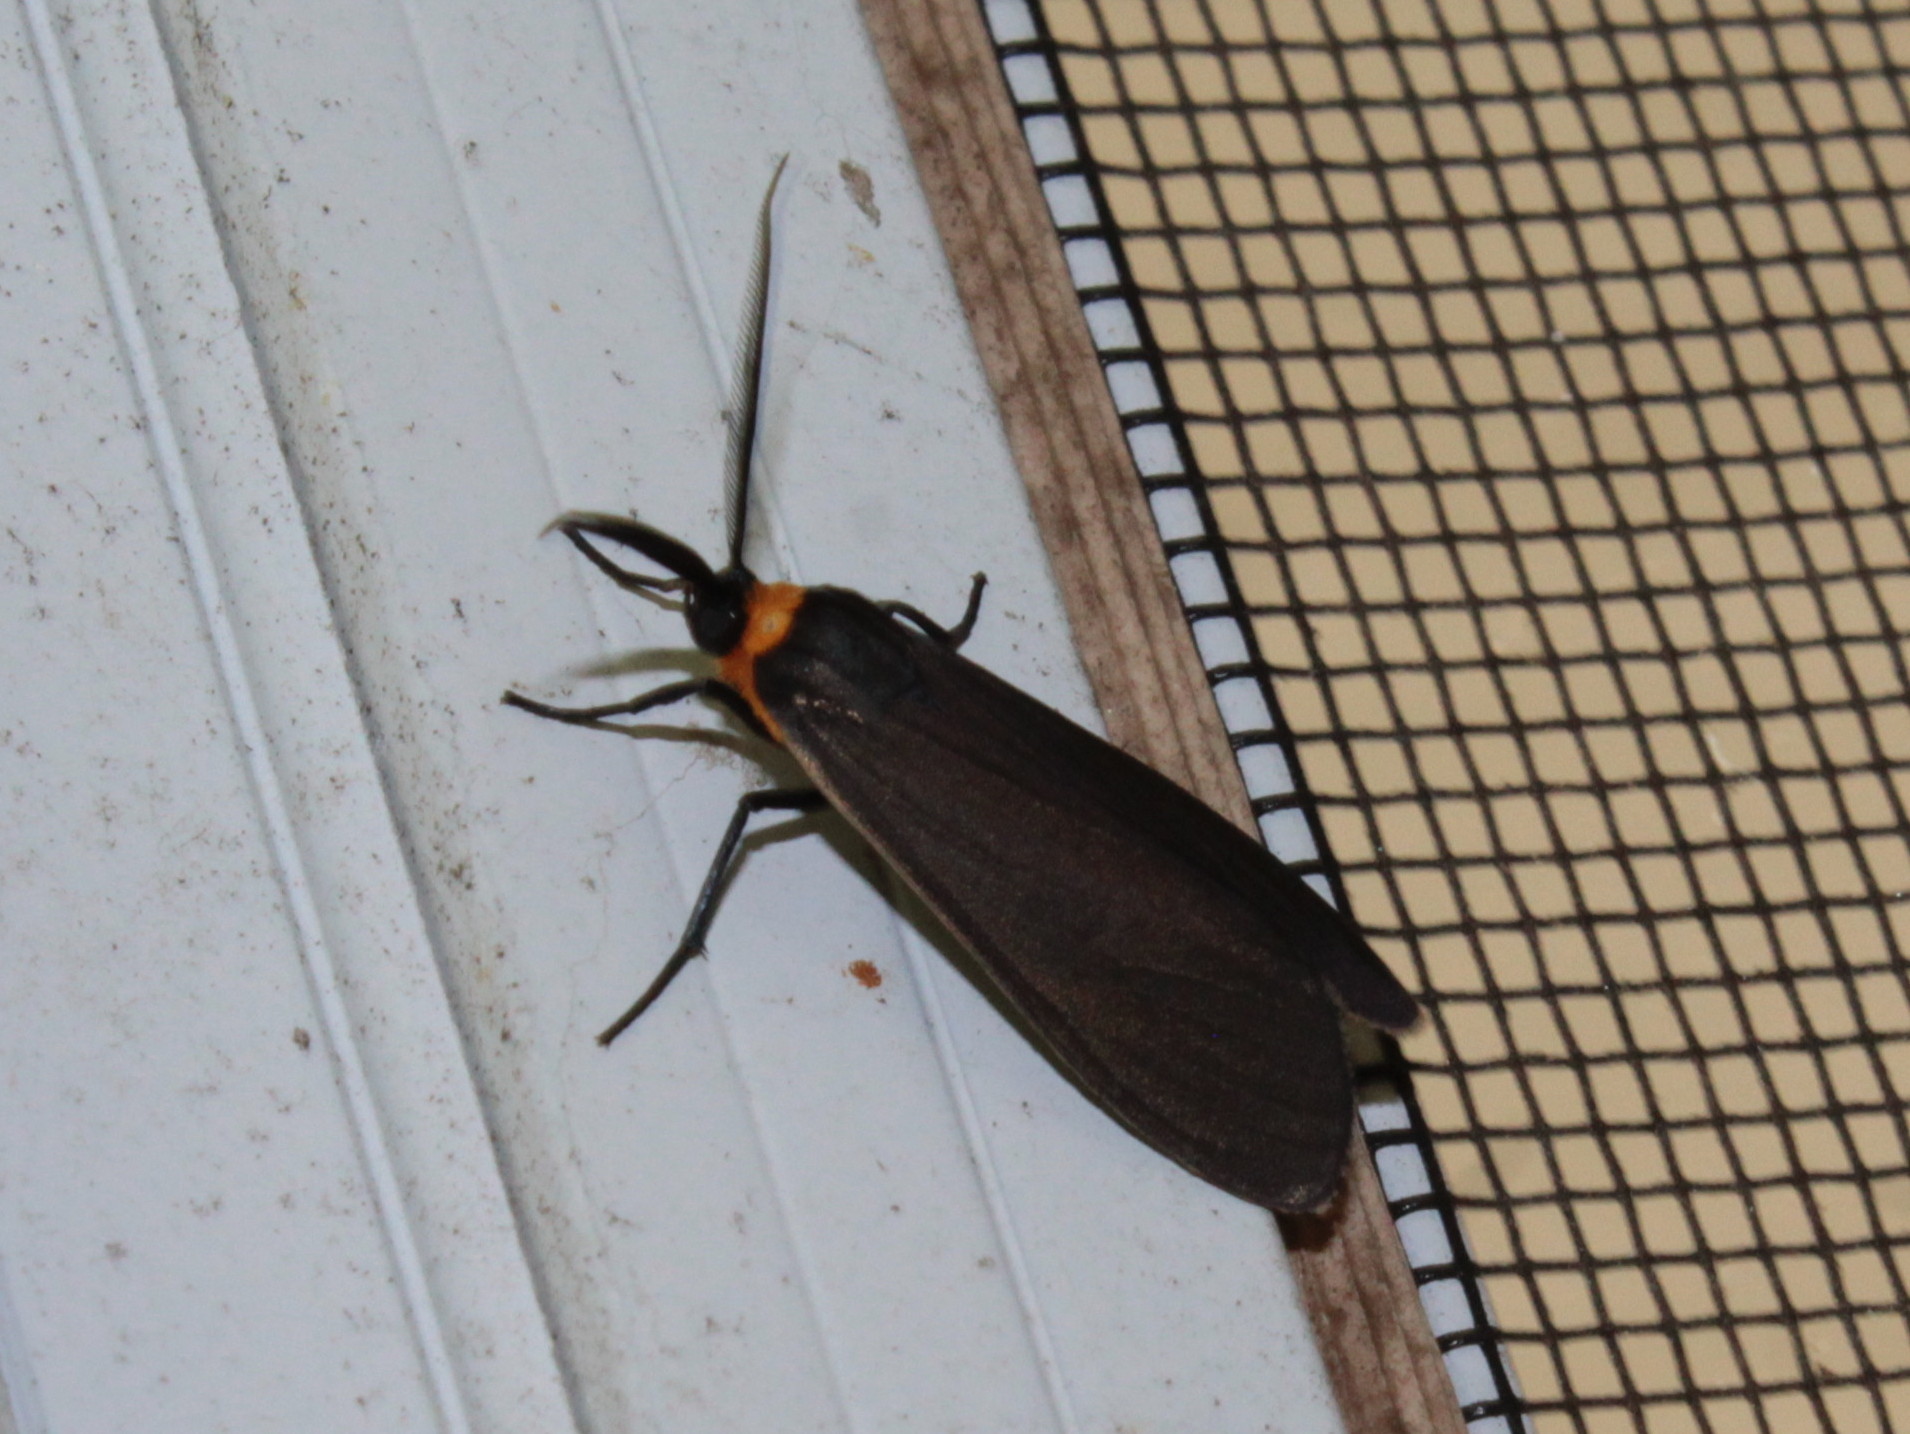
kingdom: Animalia
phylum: Arthropoda
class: Insecta
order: Lepidoptera
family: Erebidae
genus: Cisseps
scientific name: Cisseps fulvicollis
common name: Yellow-collared scape moth
